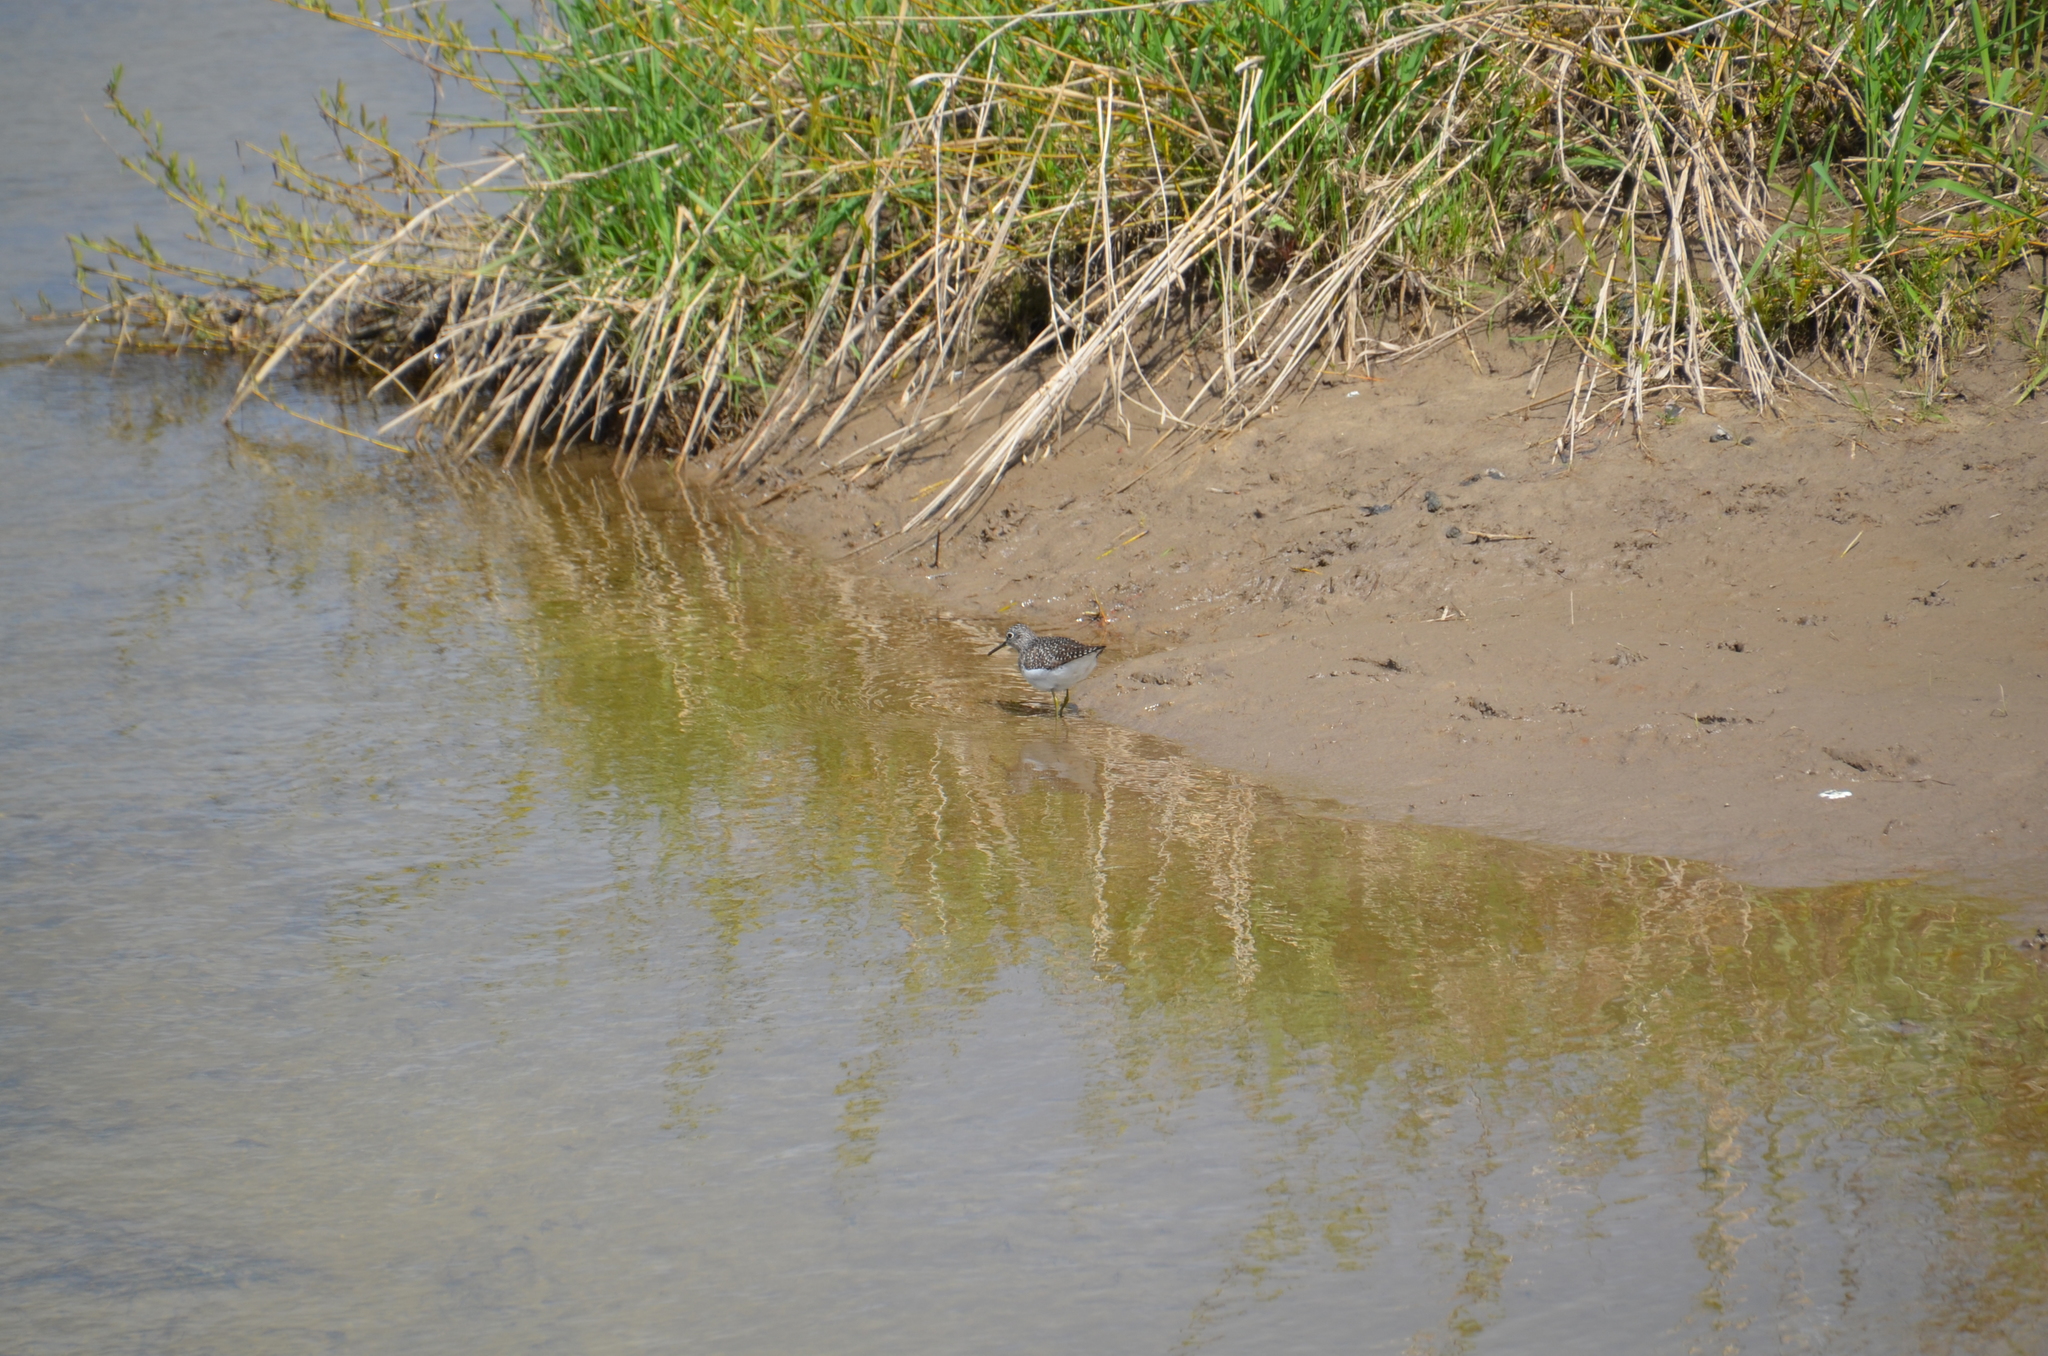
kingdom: Animalia
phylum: Chordata
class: Aves
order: Charadriiformes
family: Scolopacidae
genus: Tringa
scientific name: Tringa solitaria
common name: Solitary sandpiper
